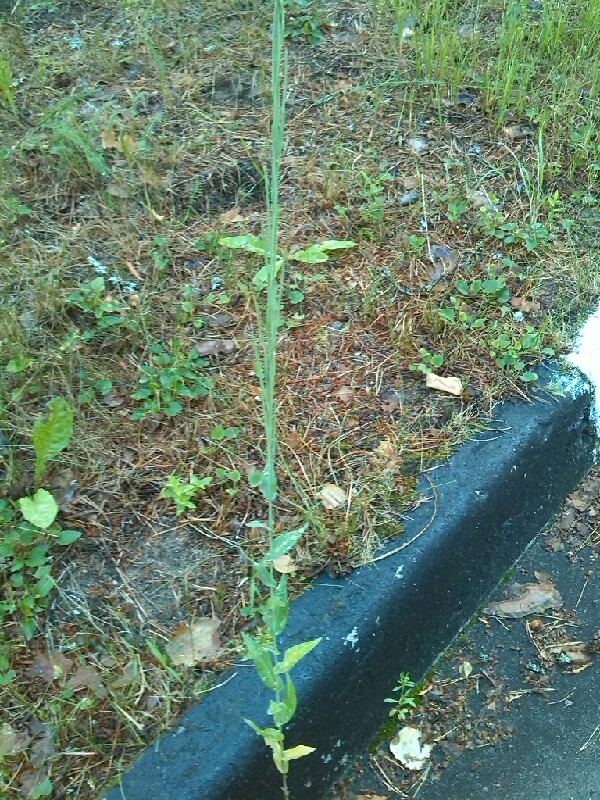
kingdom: Plantae
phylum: Tracheophyta
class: Magnoliopsida
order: Brassicales
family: Brassicaceae
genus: Turritis
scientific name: Turritis glabra
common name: Tower rockcress
